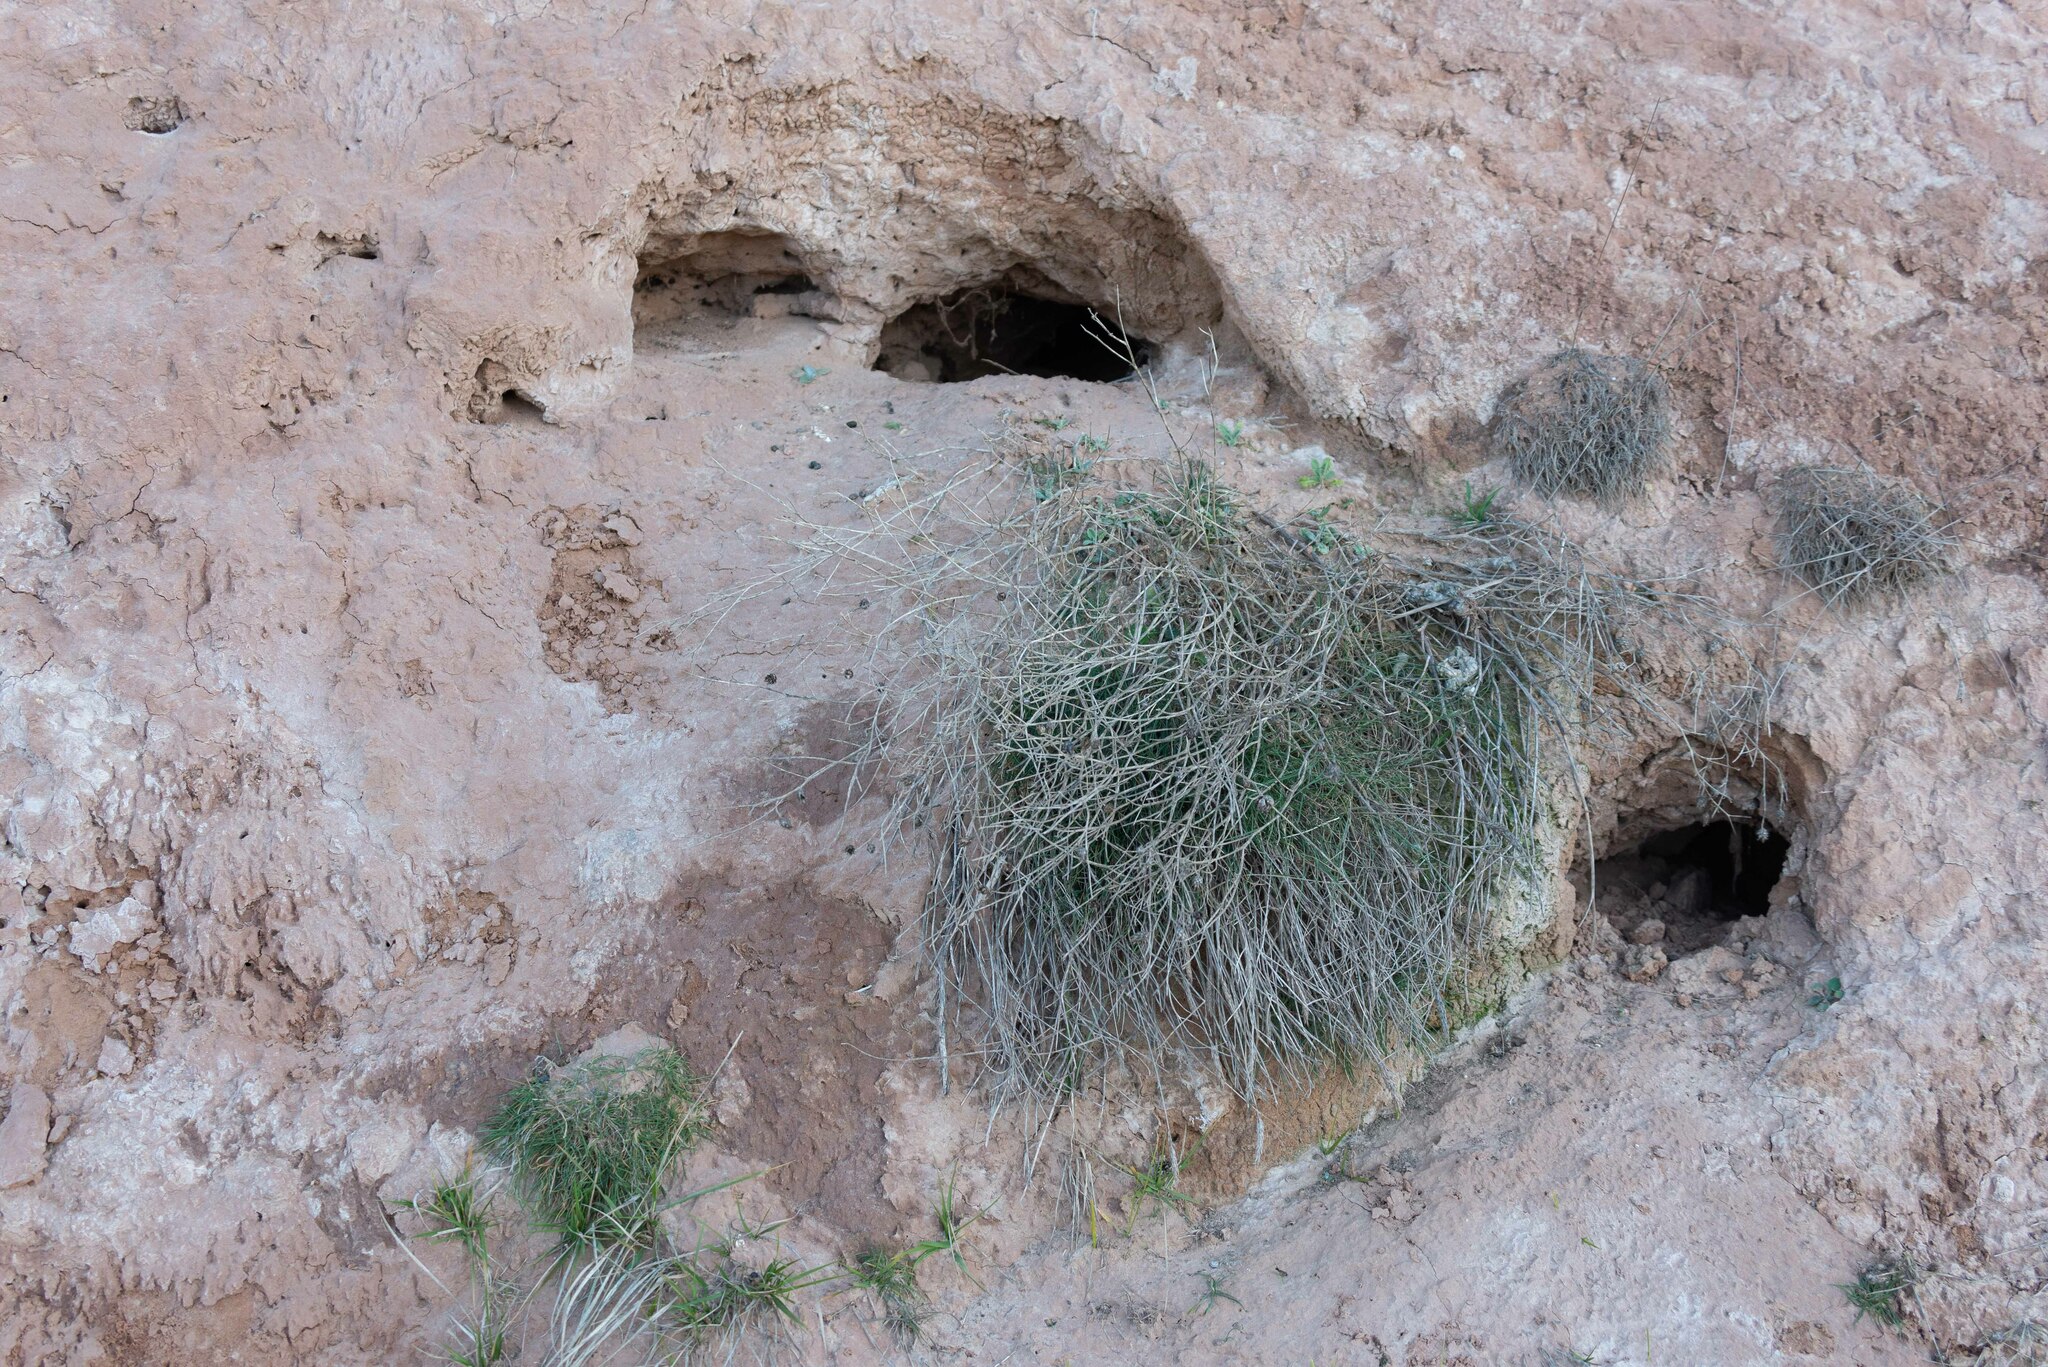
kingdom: Animalia
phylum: Chordata
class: Mammalia
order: Lagomorpha
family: Leporidae
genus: Oryctolagus
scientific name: Oryctolagus cuniculus
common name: European rabbit
